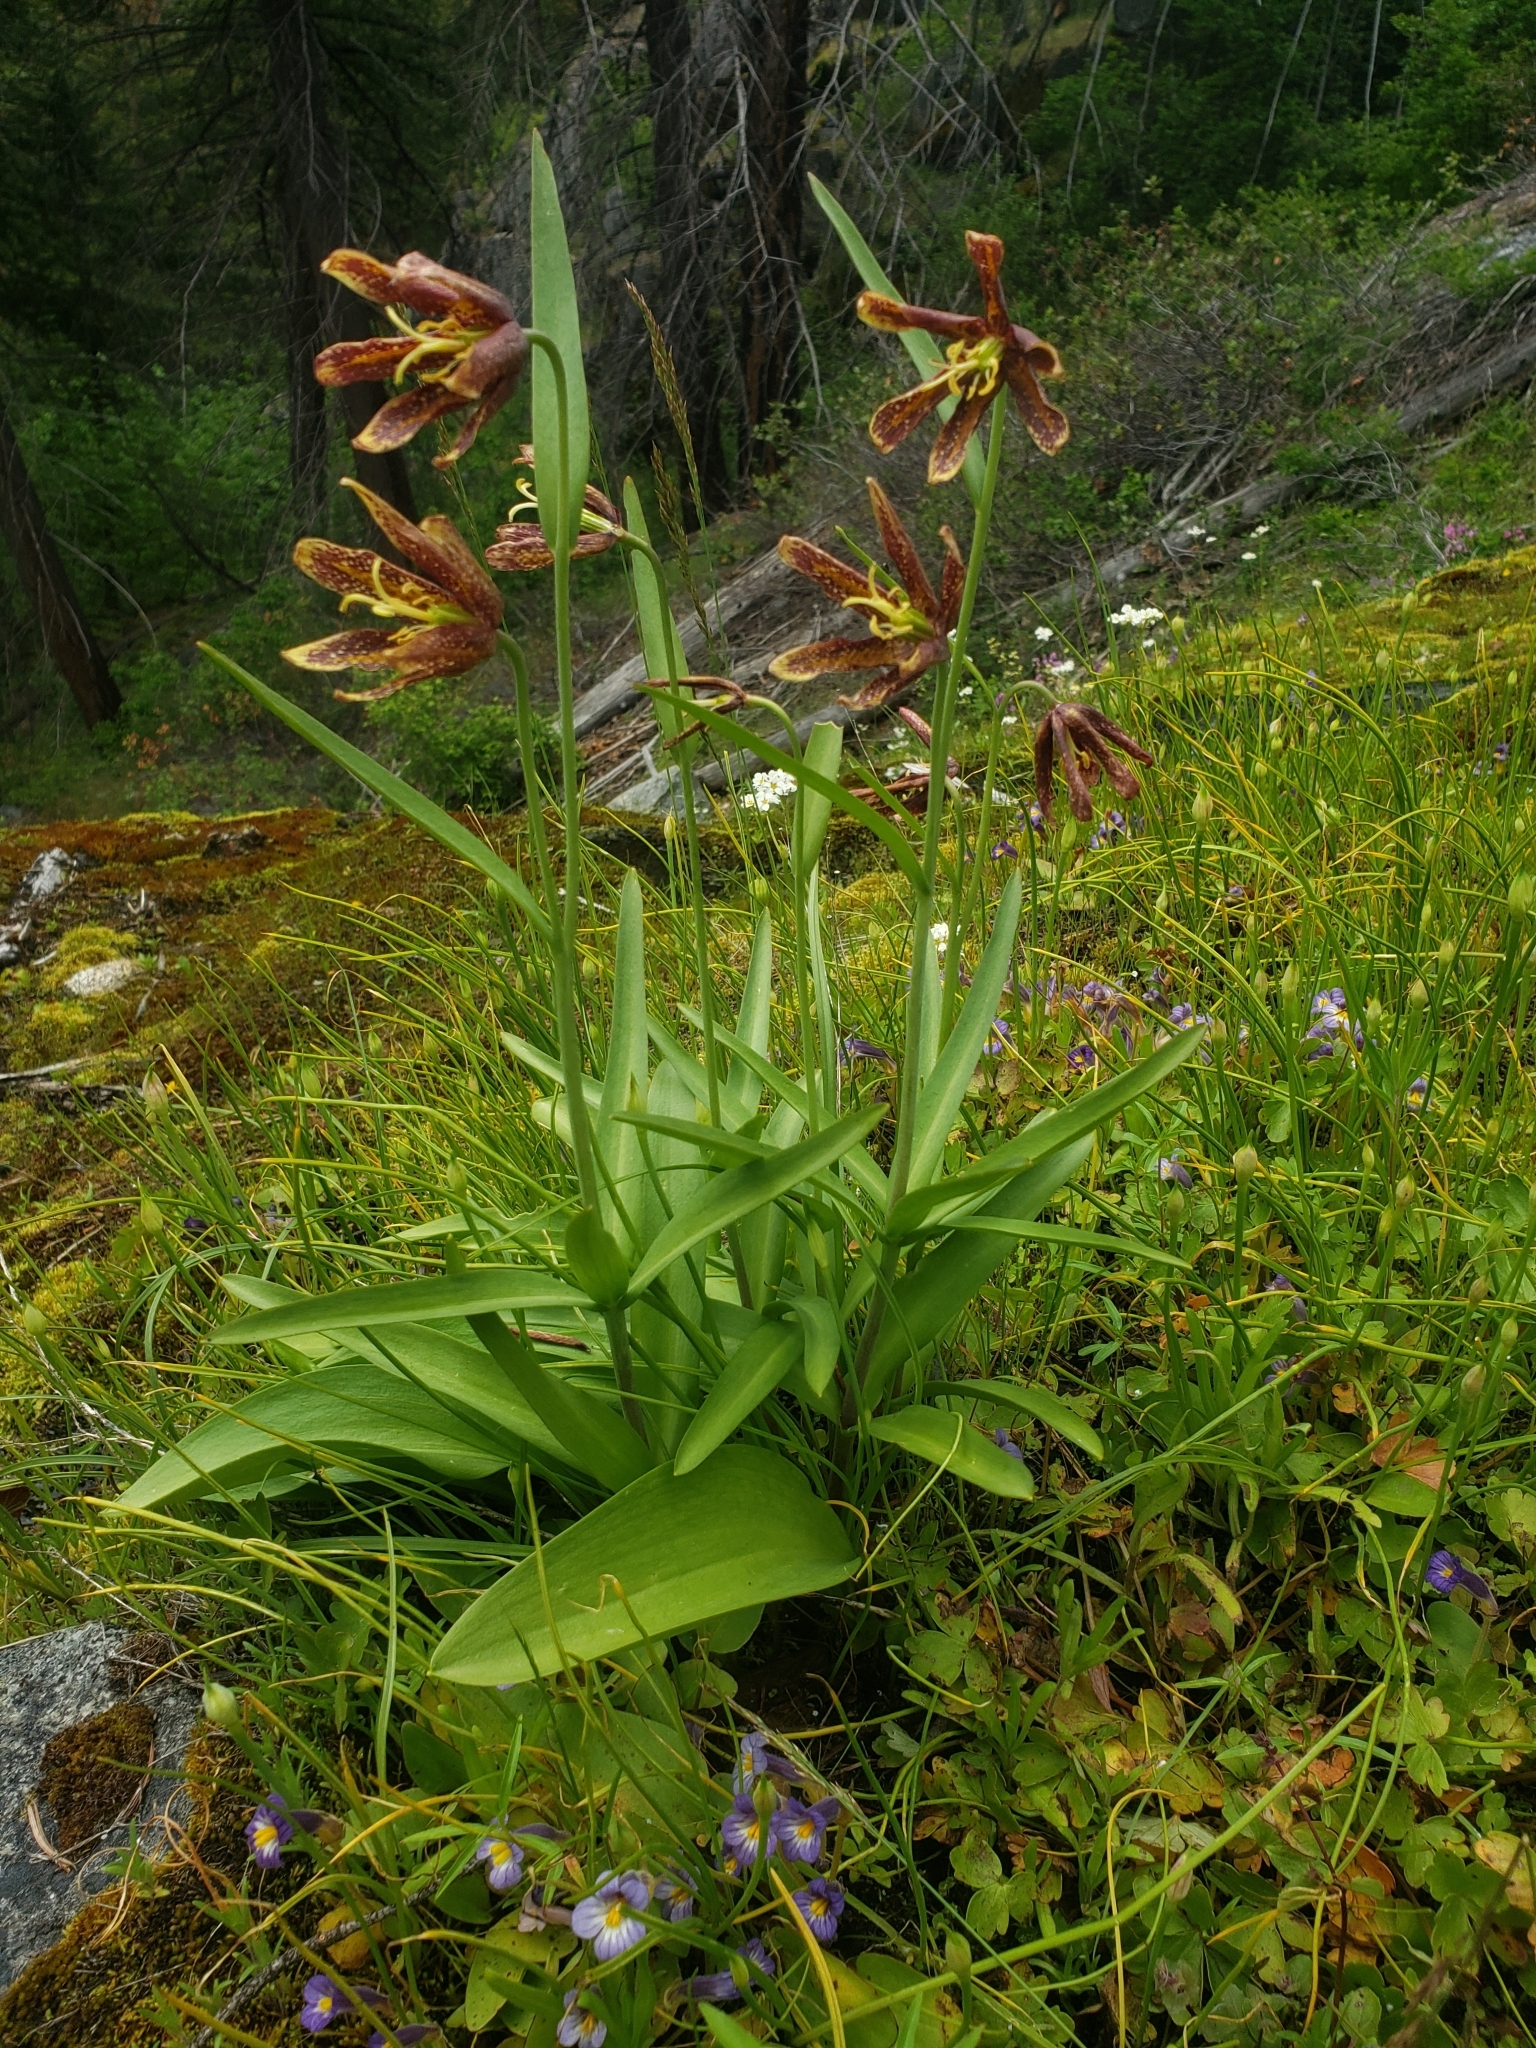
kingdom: Plantae
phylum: Tracheophyta
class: Liliopsida
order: Liliales
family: Liliaceae
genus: Fritillaria
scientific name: Fritillaria affinis
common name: Ojai fritillary
